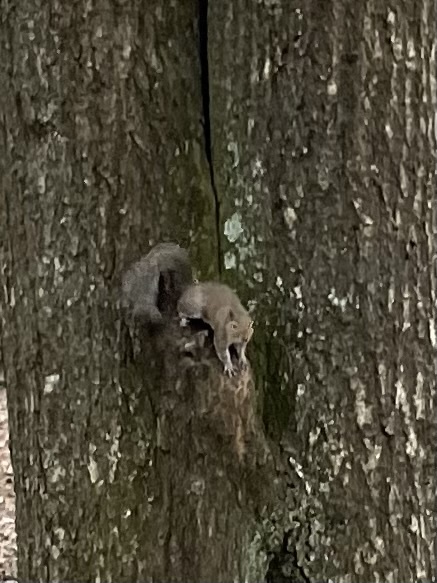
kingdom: Animalia
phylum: Chordata
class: Mammalia
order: Rodentia
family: Sciuridae
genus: Sciurus
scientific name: Sciurus carolinensis
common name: Eastern gray squirrel
